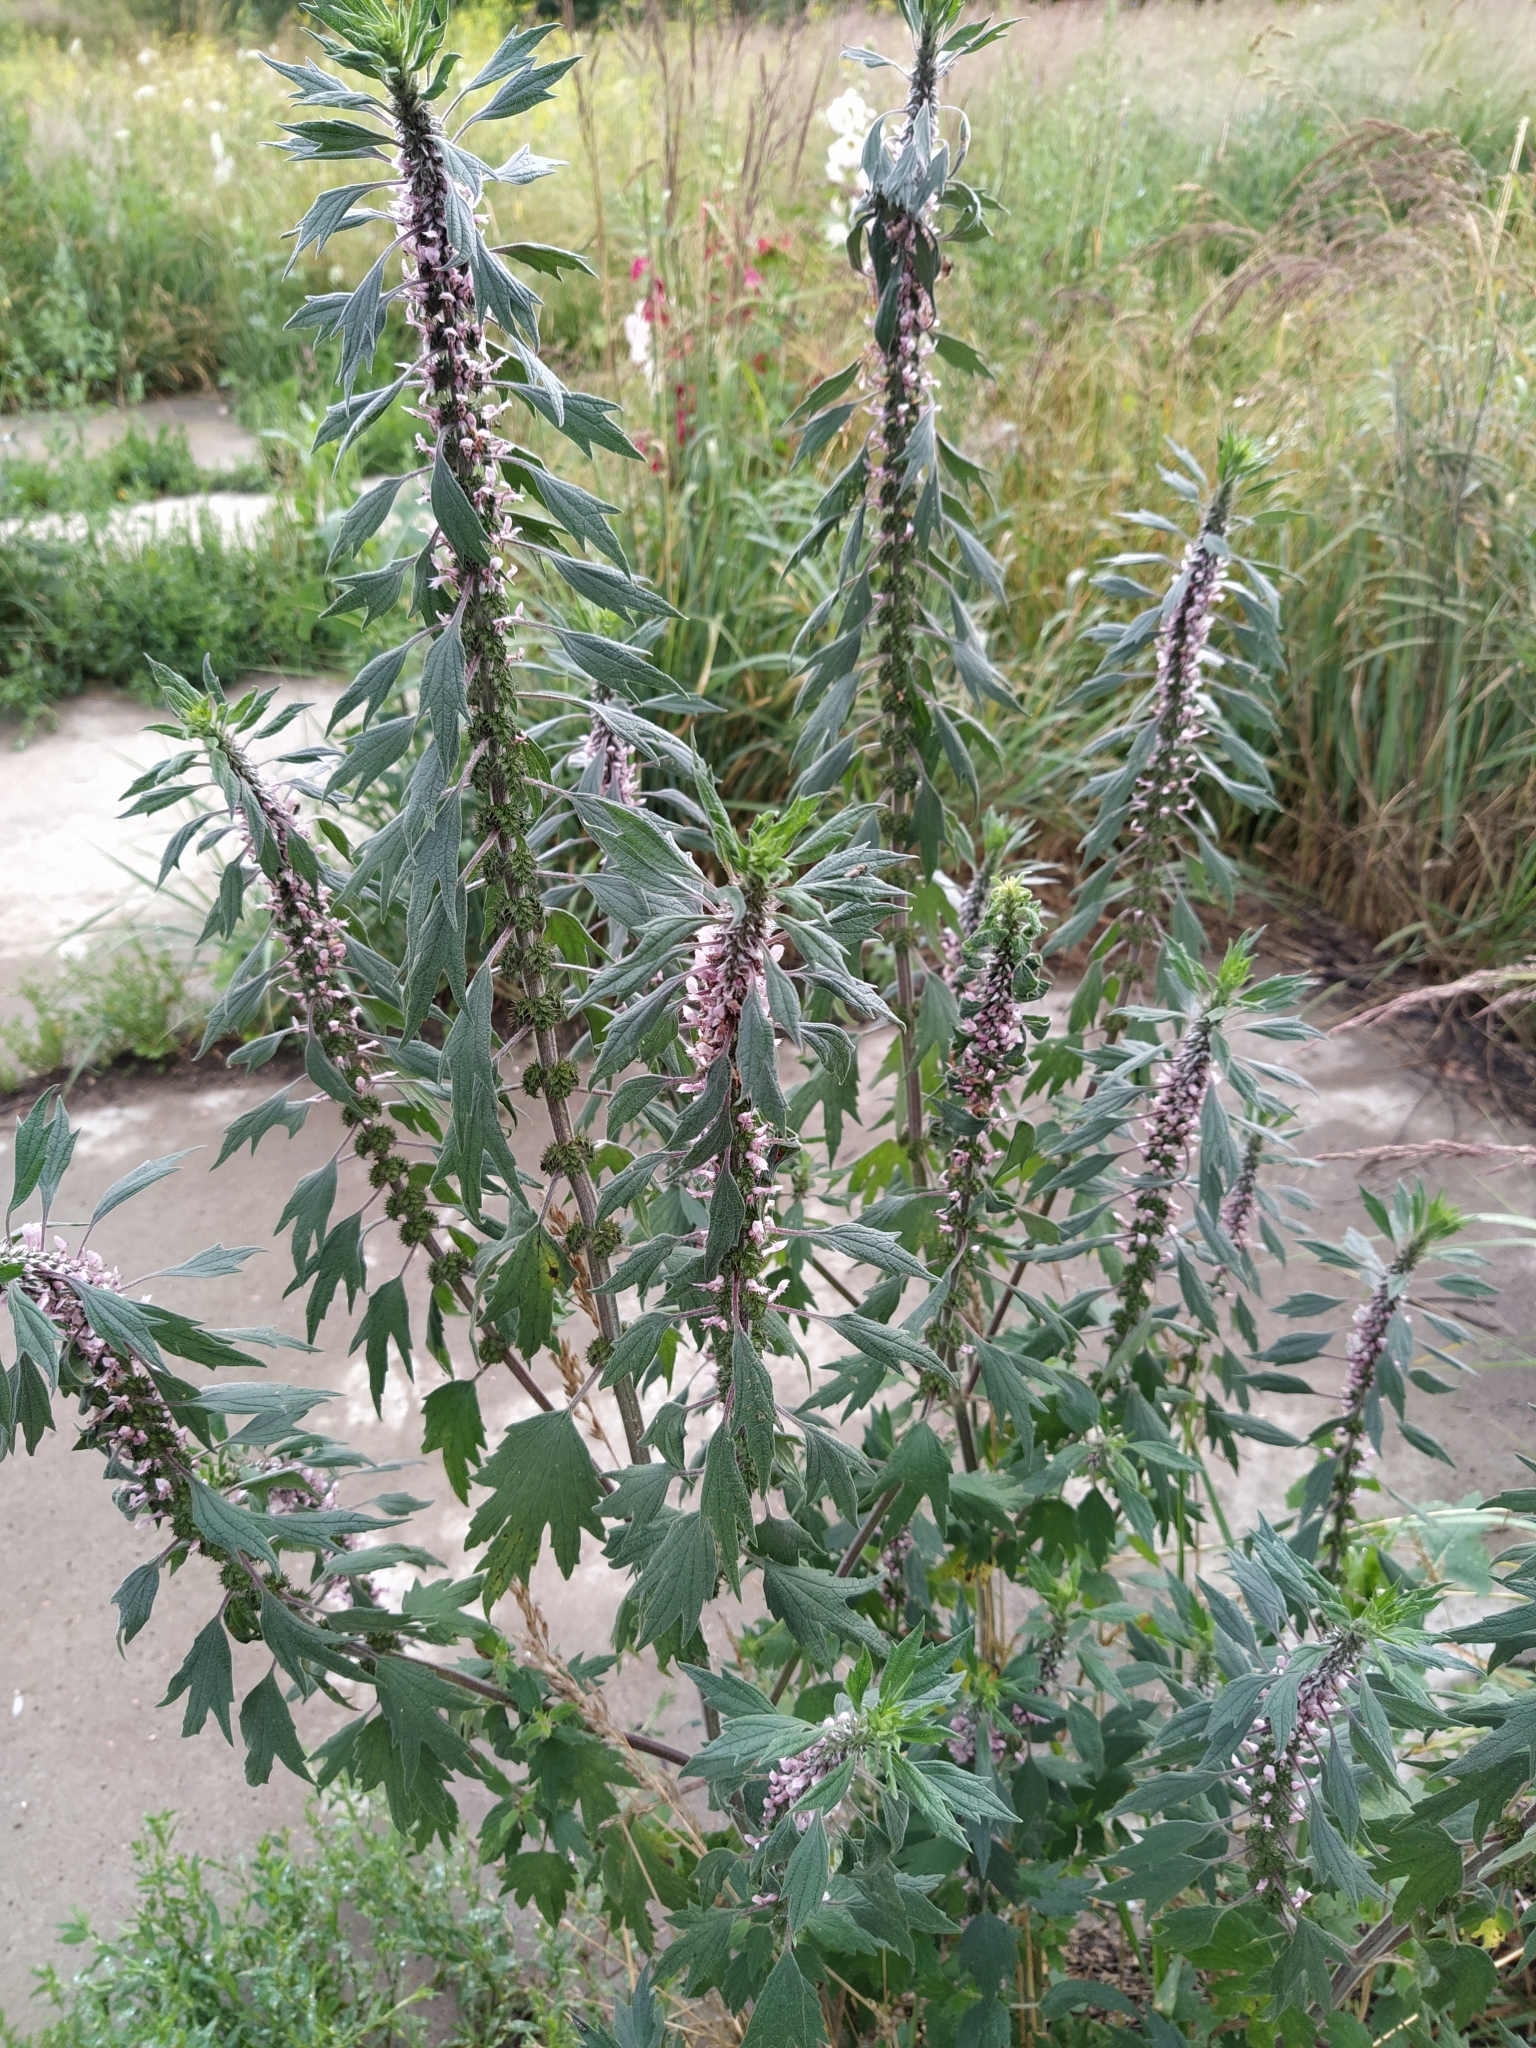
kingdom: Plantae
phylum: Tracheophyta
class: Magnoliopsida
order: Lamiales
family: Lamiaceae
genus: Leonurus
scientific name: Leonurus quinquelobatus
